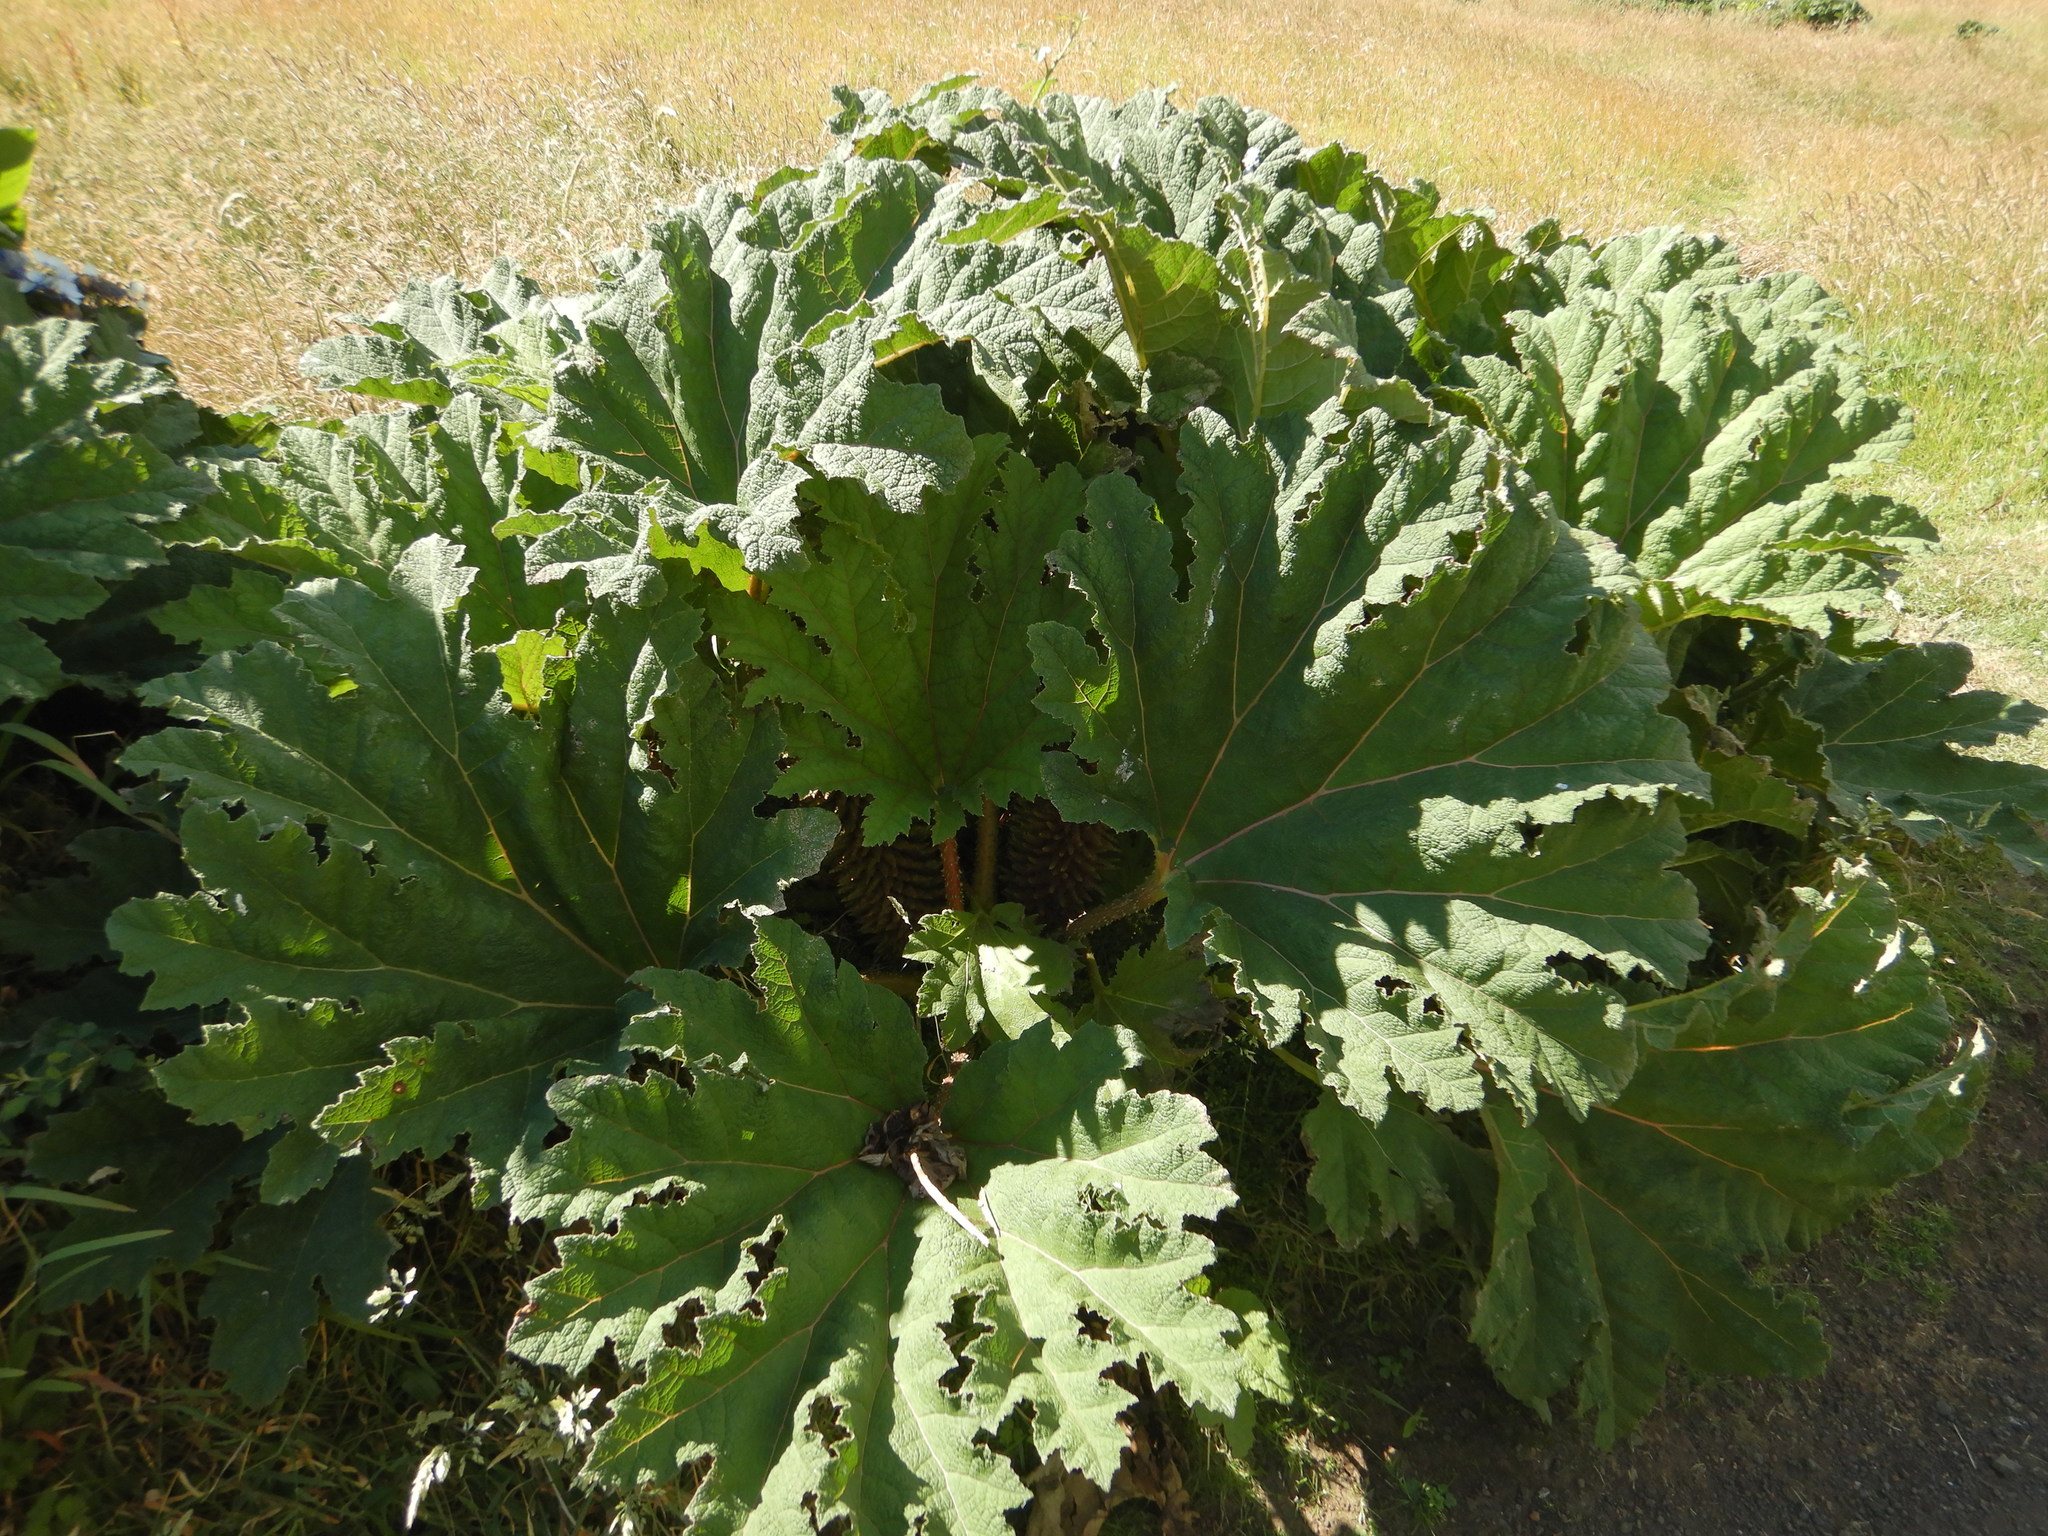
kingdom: Plantae
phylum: Tracheophyta
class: Magnoliopsida
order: Gunnerales
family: Gunneraceae
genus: Gunnera
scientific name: Gunnera tinctoria
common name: Giant-rhubarb
